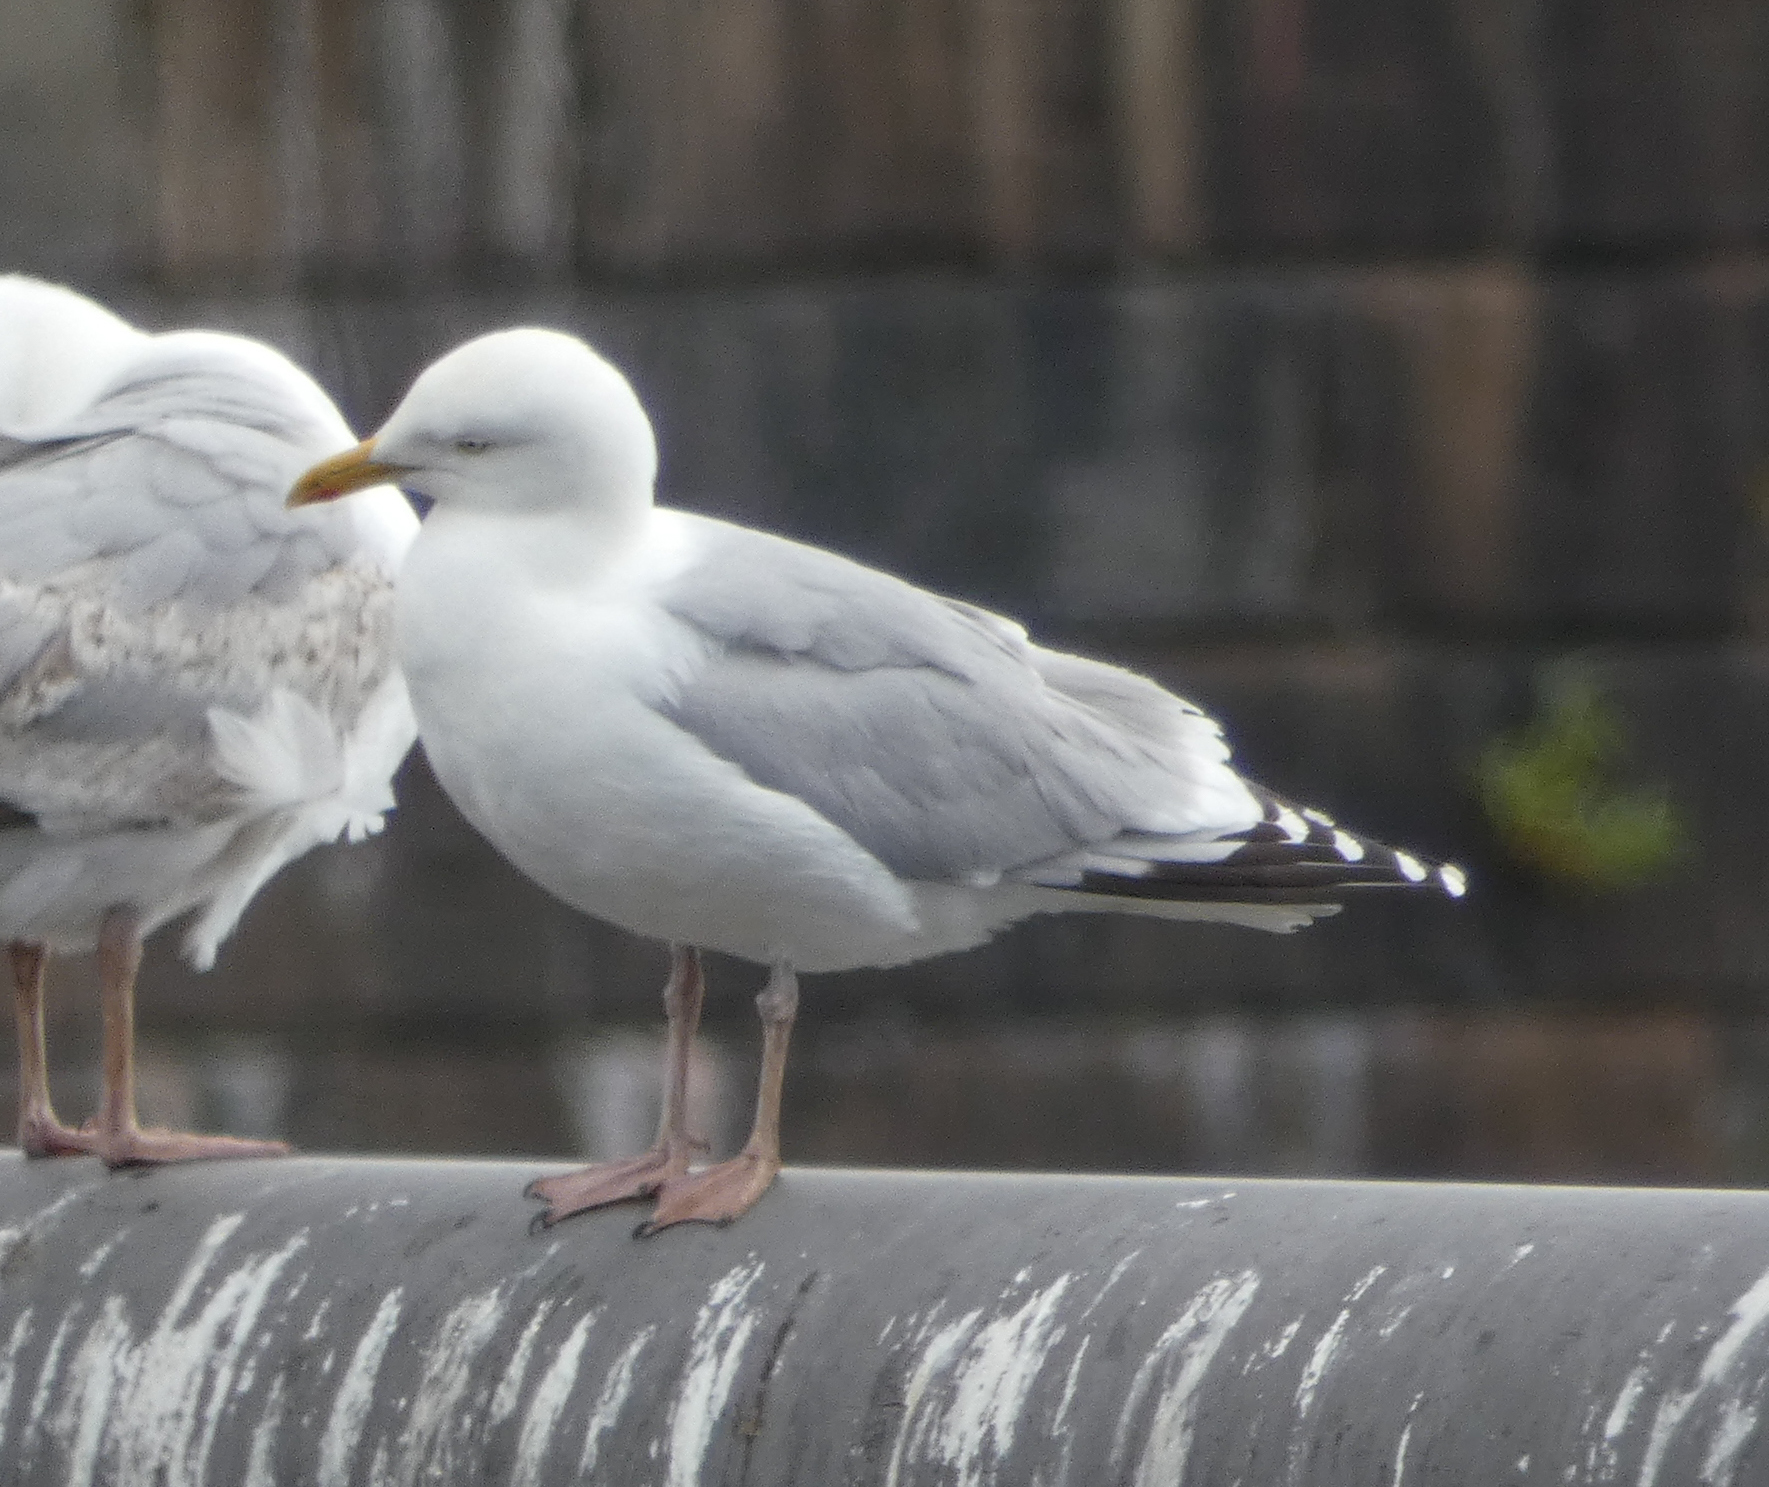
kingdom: Animalia
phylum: Chordata
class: Aves
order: Charadriiformes
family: Laridae
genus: Larus
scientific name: Larus argentatus
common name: Herring gull
